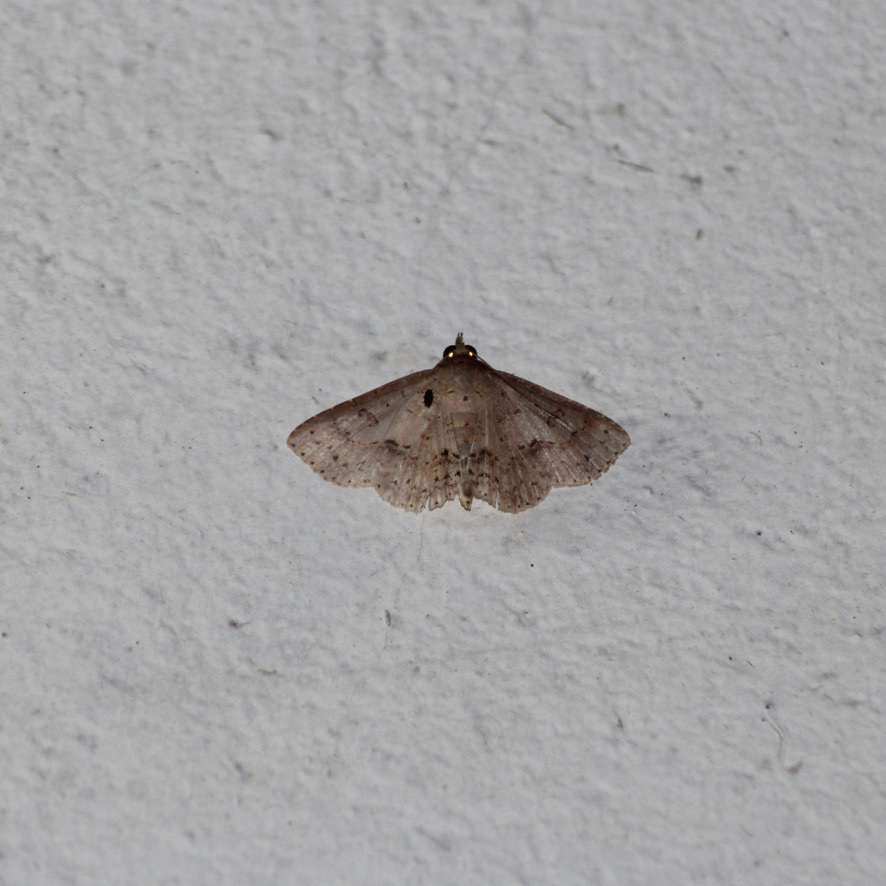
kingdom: Animalia
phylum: Arthropoda
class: Insecta
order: Lepidoptera
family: Erebidae
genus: Antiblemma
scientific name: Antiblemma melanoides
